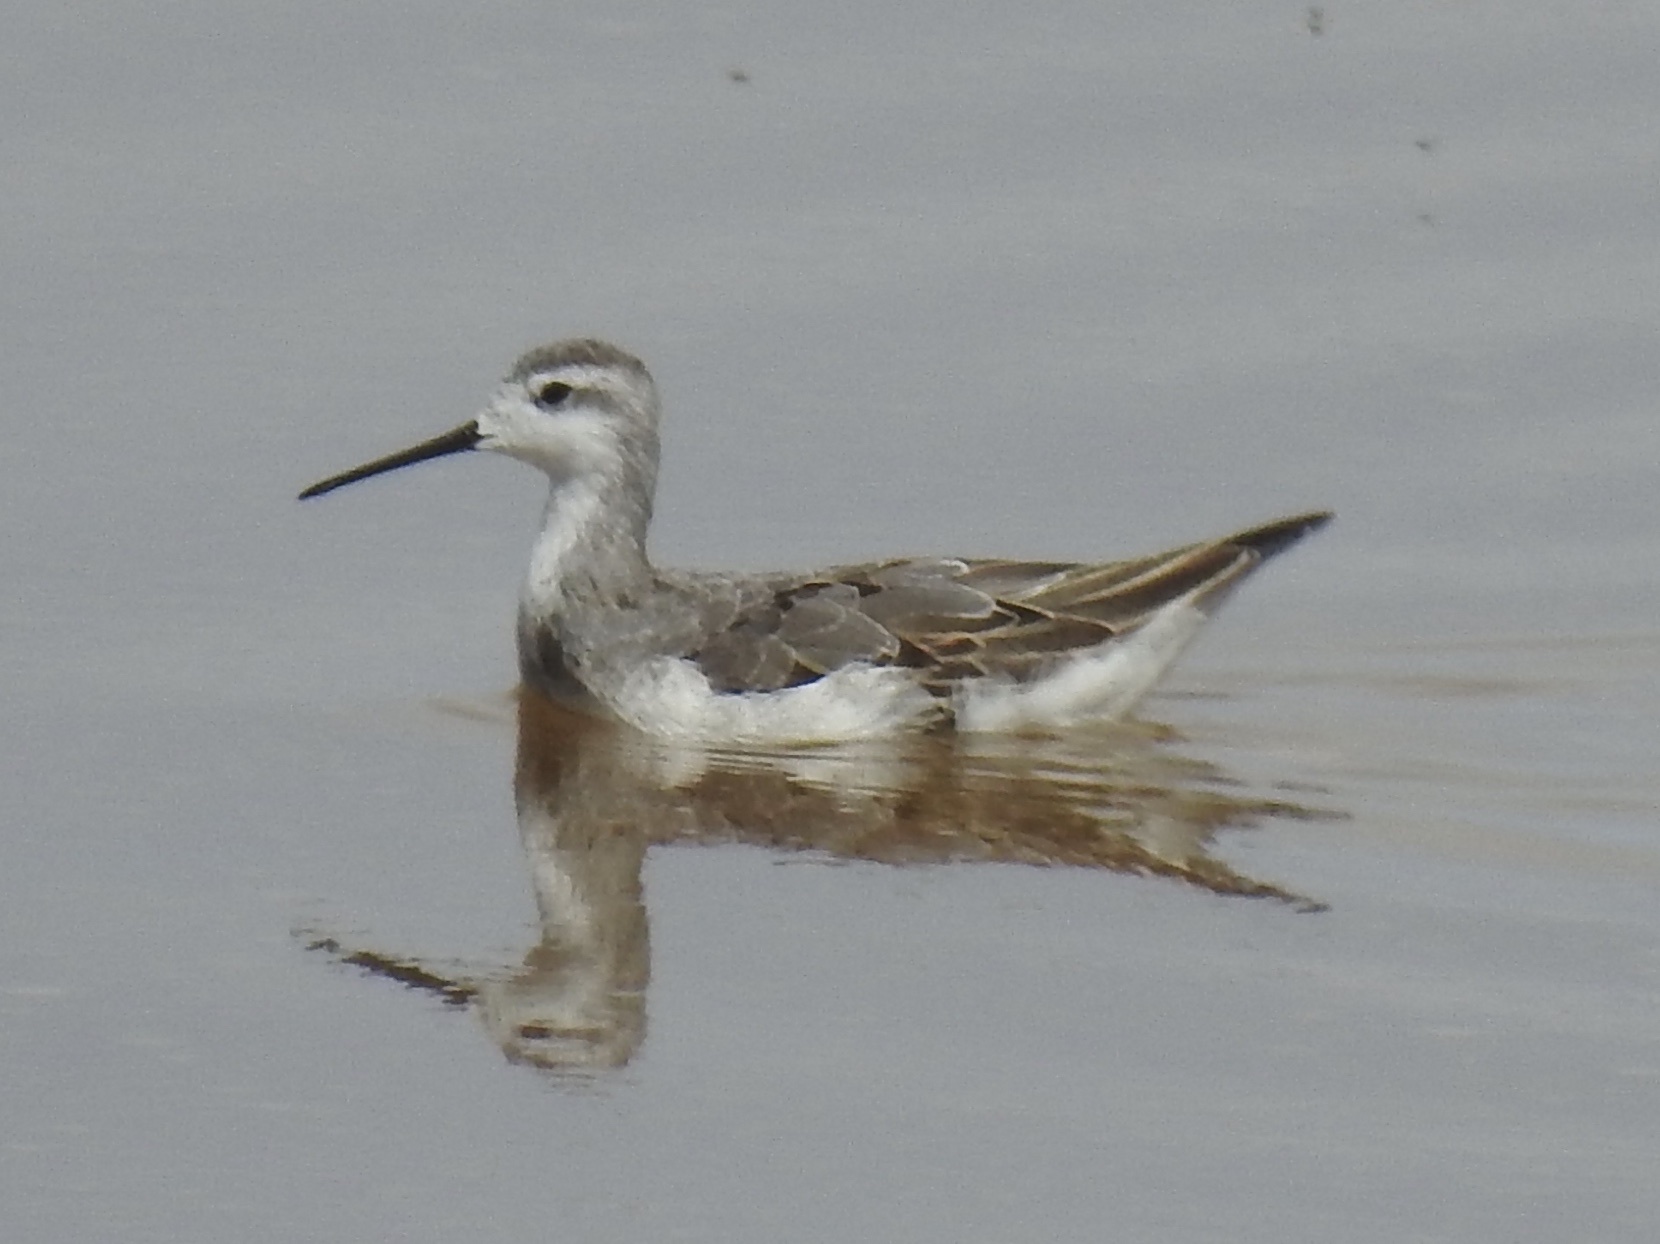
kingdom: Animalia
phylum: Chordata
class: Aves
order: Charadriiformes
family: Scolopacidae
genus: Phalaropus
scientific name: Phalaropus tricolor
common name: Wilson's phalarope
